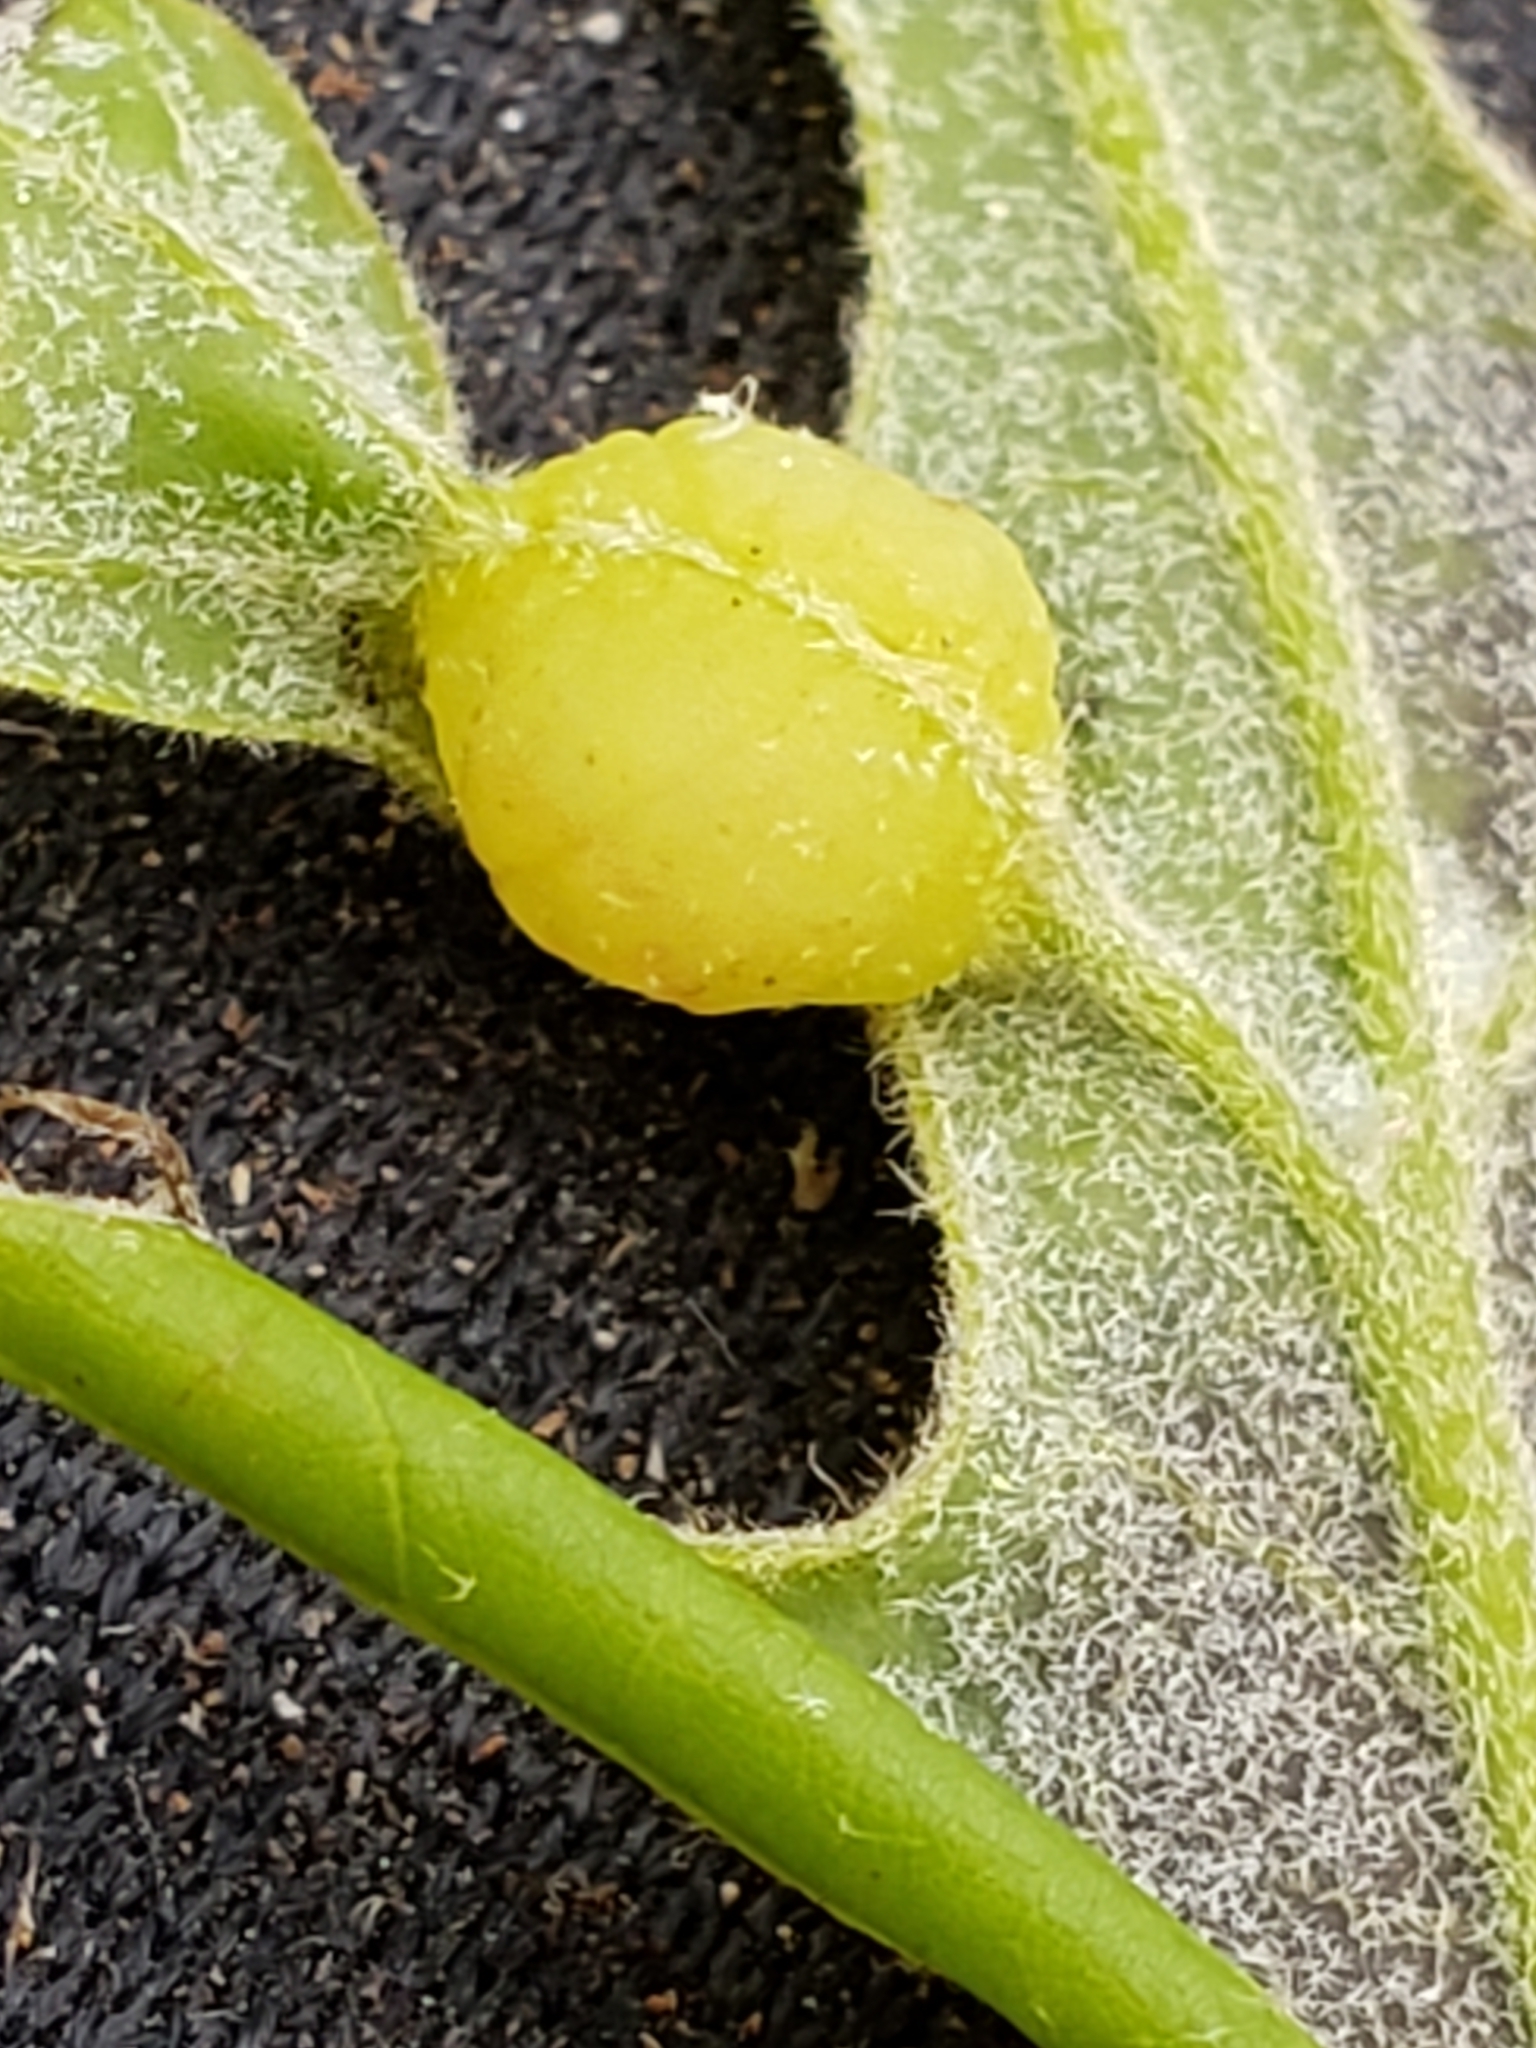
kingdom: Animalia
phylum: Arthropoda
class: Insecta
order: Hymenoptera
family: Cynipidae
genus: Dryocosmus
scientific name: Dryocosmus quercuspalustris
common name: Succulent oak gall wasp
